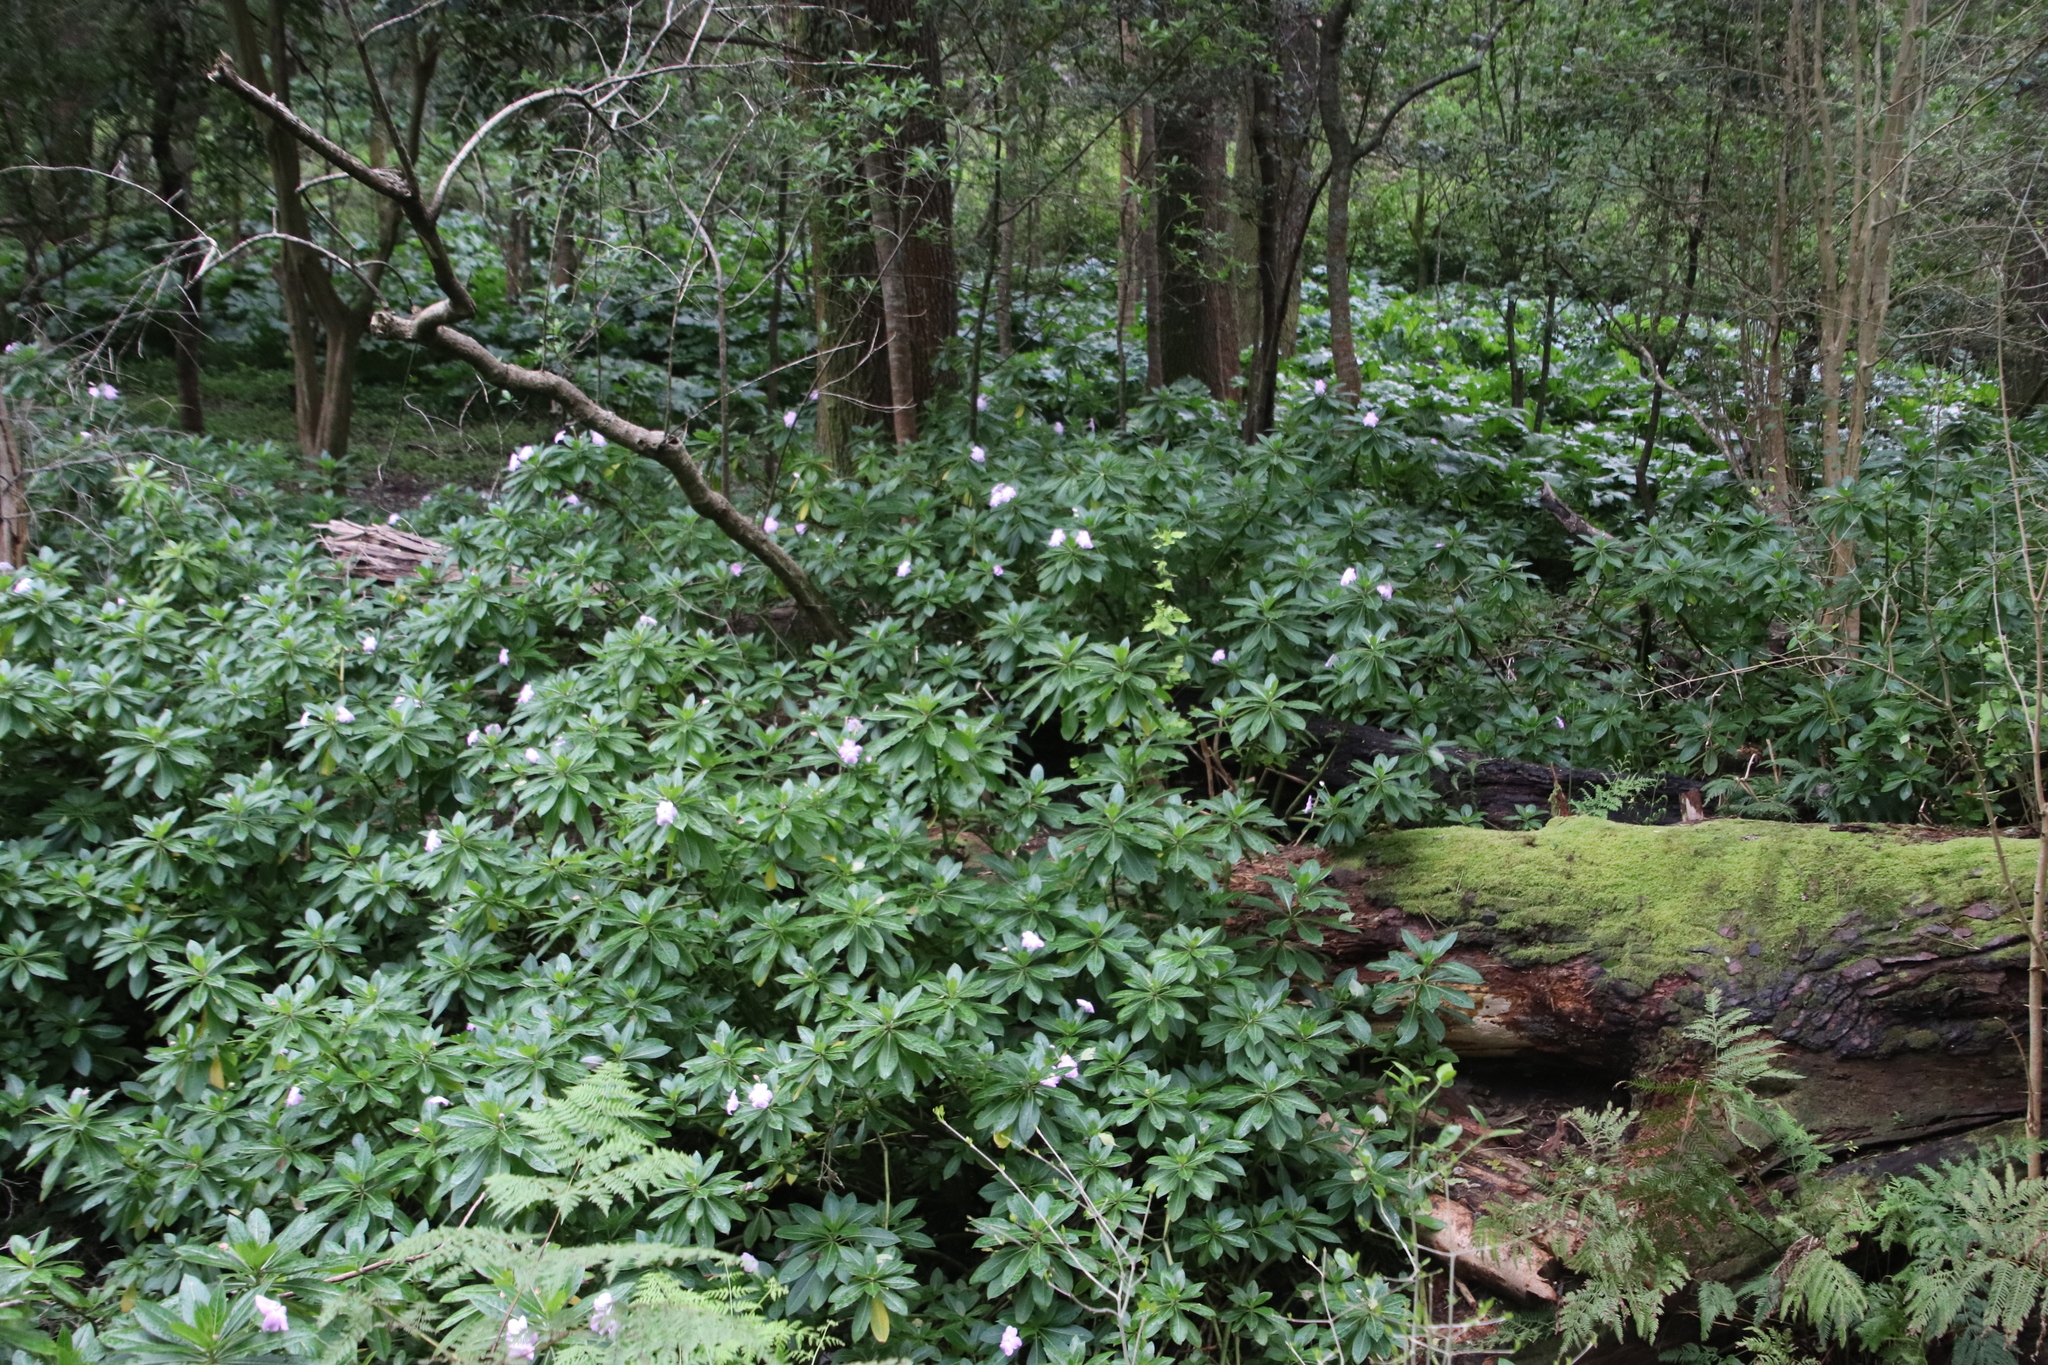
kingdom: Plantae
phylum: Tracheophyta
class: Magnoliopsida
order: Ericales
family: Balsaminaceae
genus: Impatiens
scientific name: Impatiens sodenii
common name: Oliver's touch-me-not
